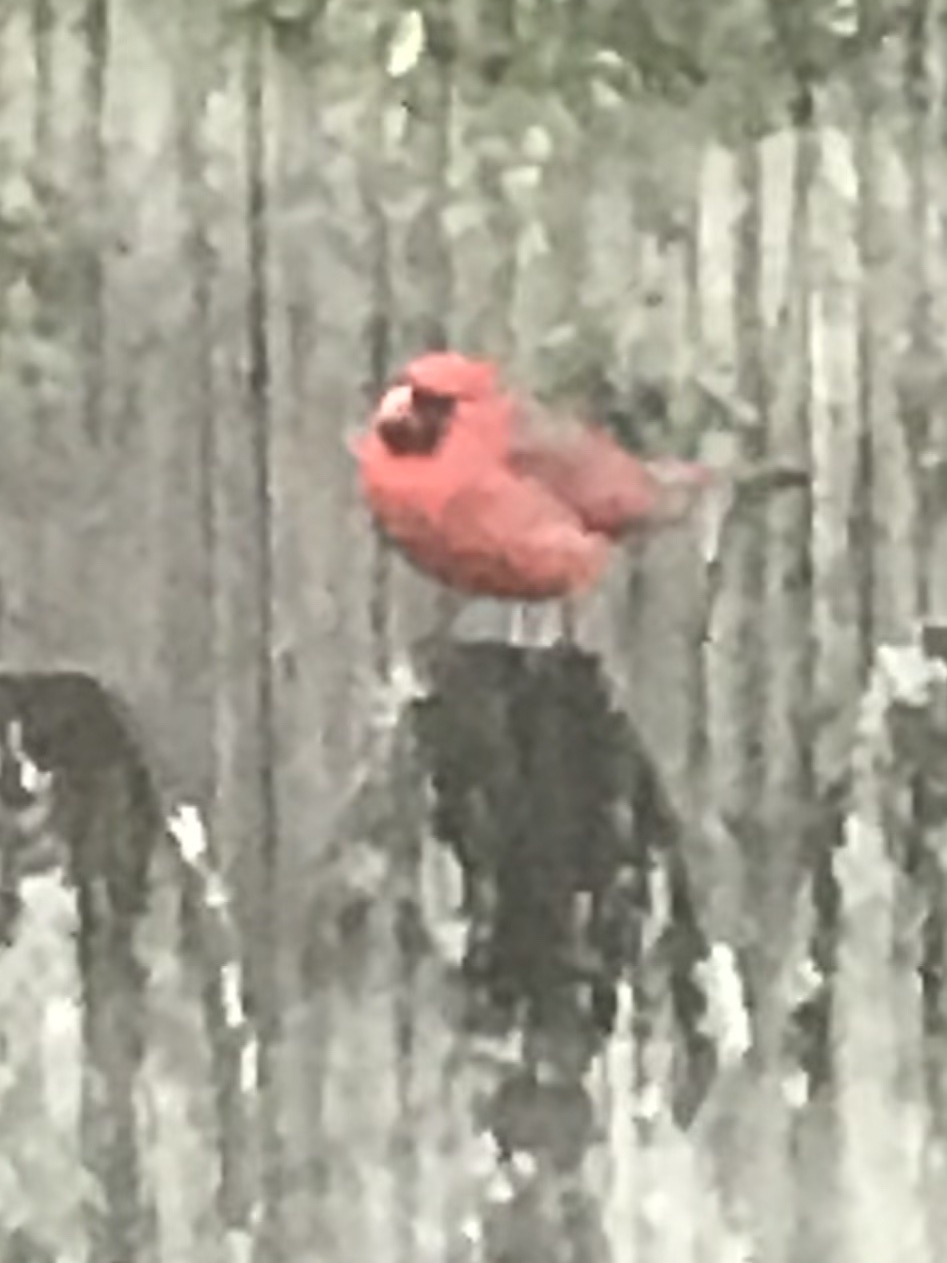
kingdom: Animalia
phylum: Chordata
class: Aves
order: Passeriformes
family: Cardinalidae
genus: Cardinalis
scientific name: Cardinalis cardinalis
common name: Northern cardinal
